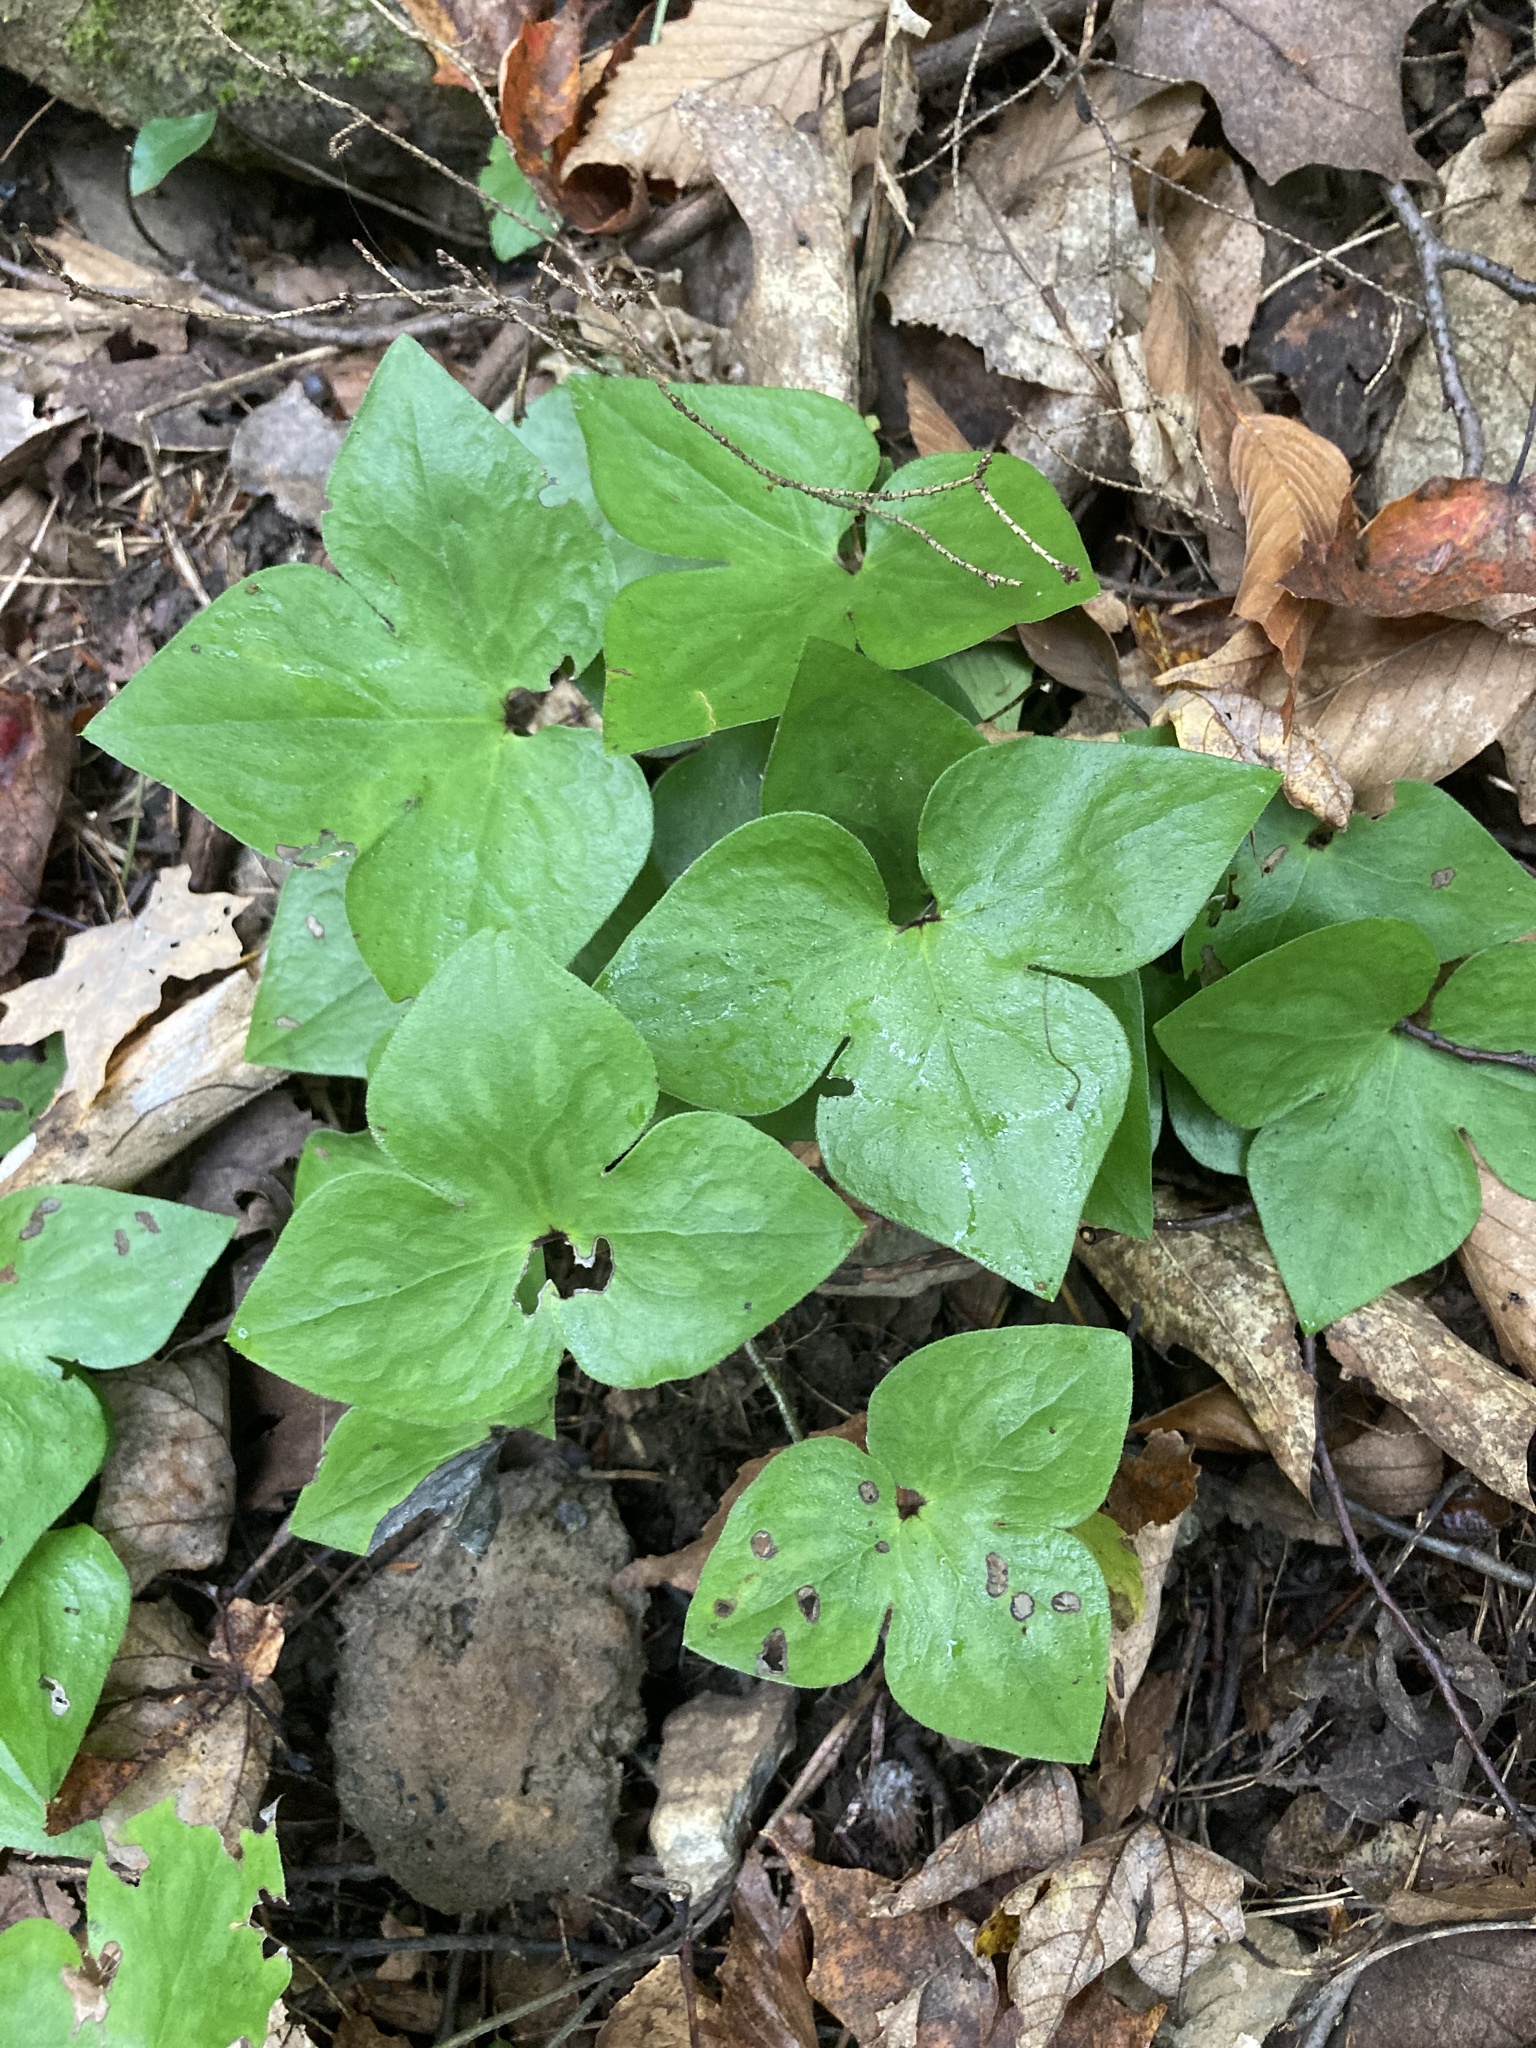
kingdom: Plantae
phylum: Tracheophyta
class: Magnoliopsida
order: Ranunculales
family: Ranunculaceae
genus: Hepatica
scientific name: Hepatica acutiloba
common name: Sharp-lobed hepatica
